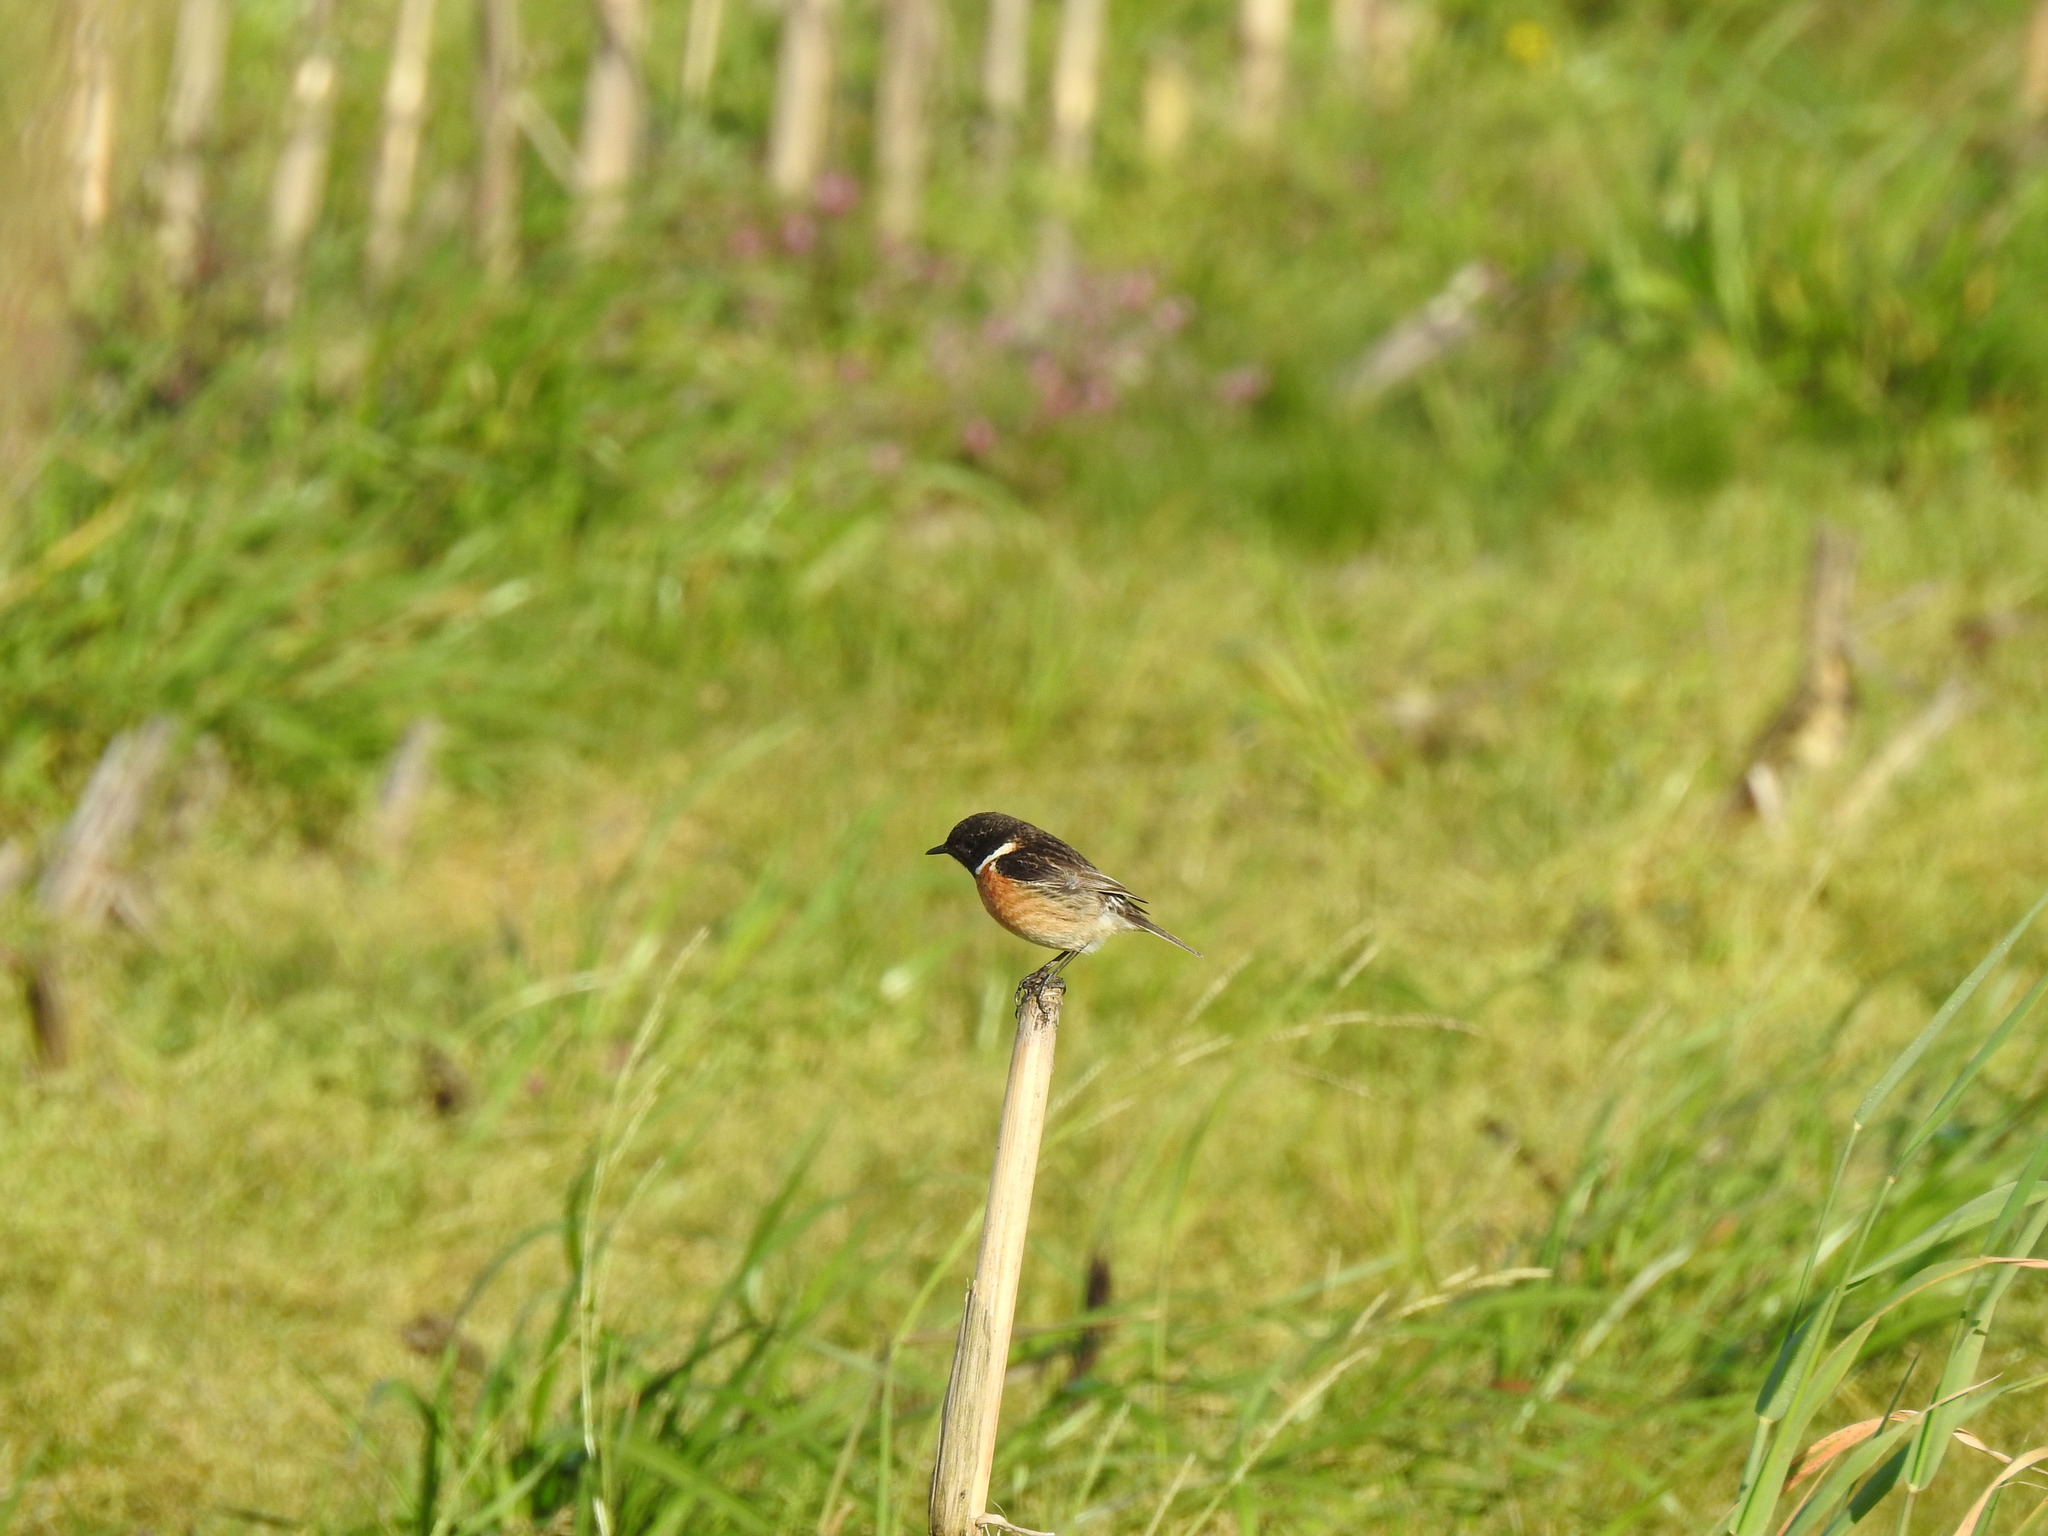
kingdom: Animalia
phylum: Chordata
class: Aves
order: Passeriformes
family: Muscicapidae
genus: Saxicola
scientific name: Saxicola rubicola
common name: European stonechat
